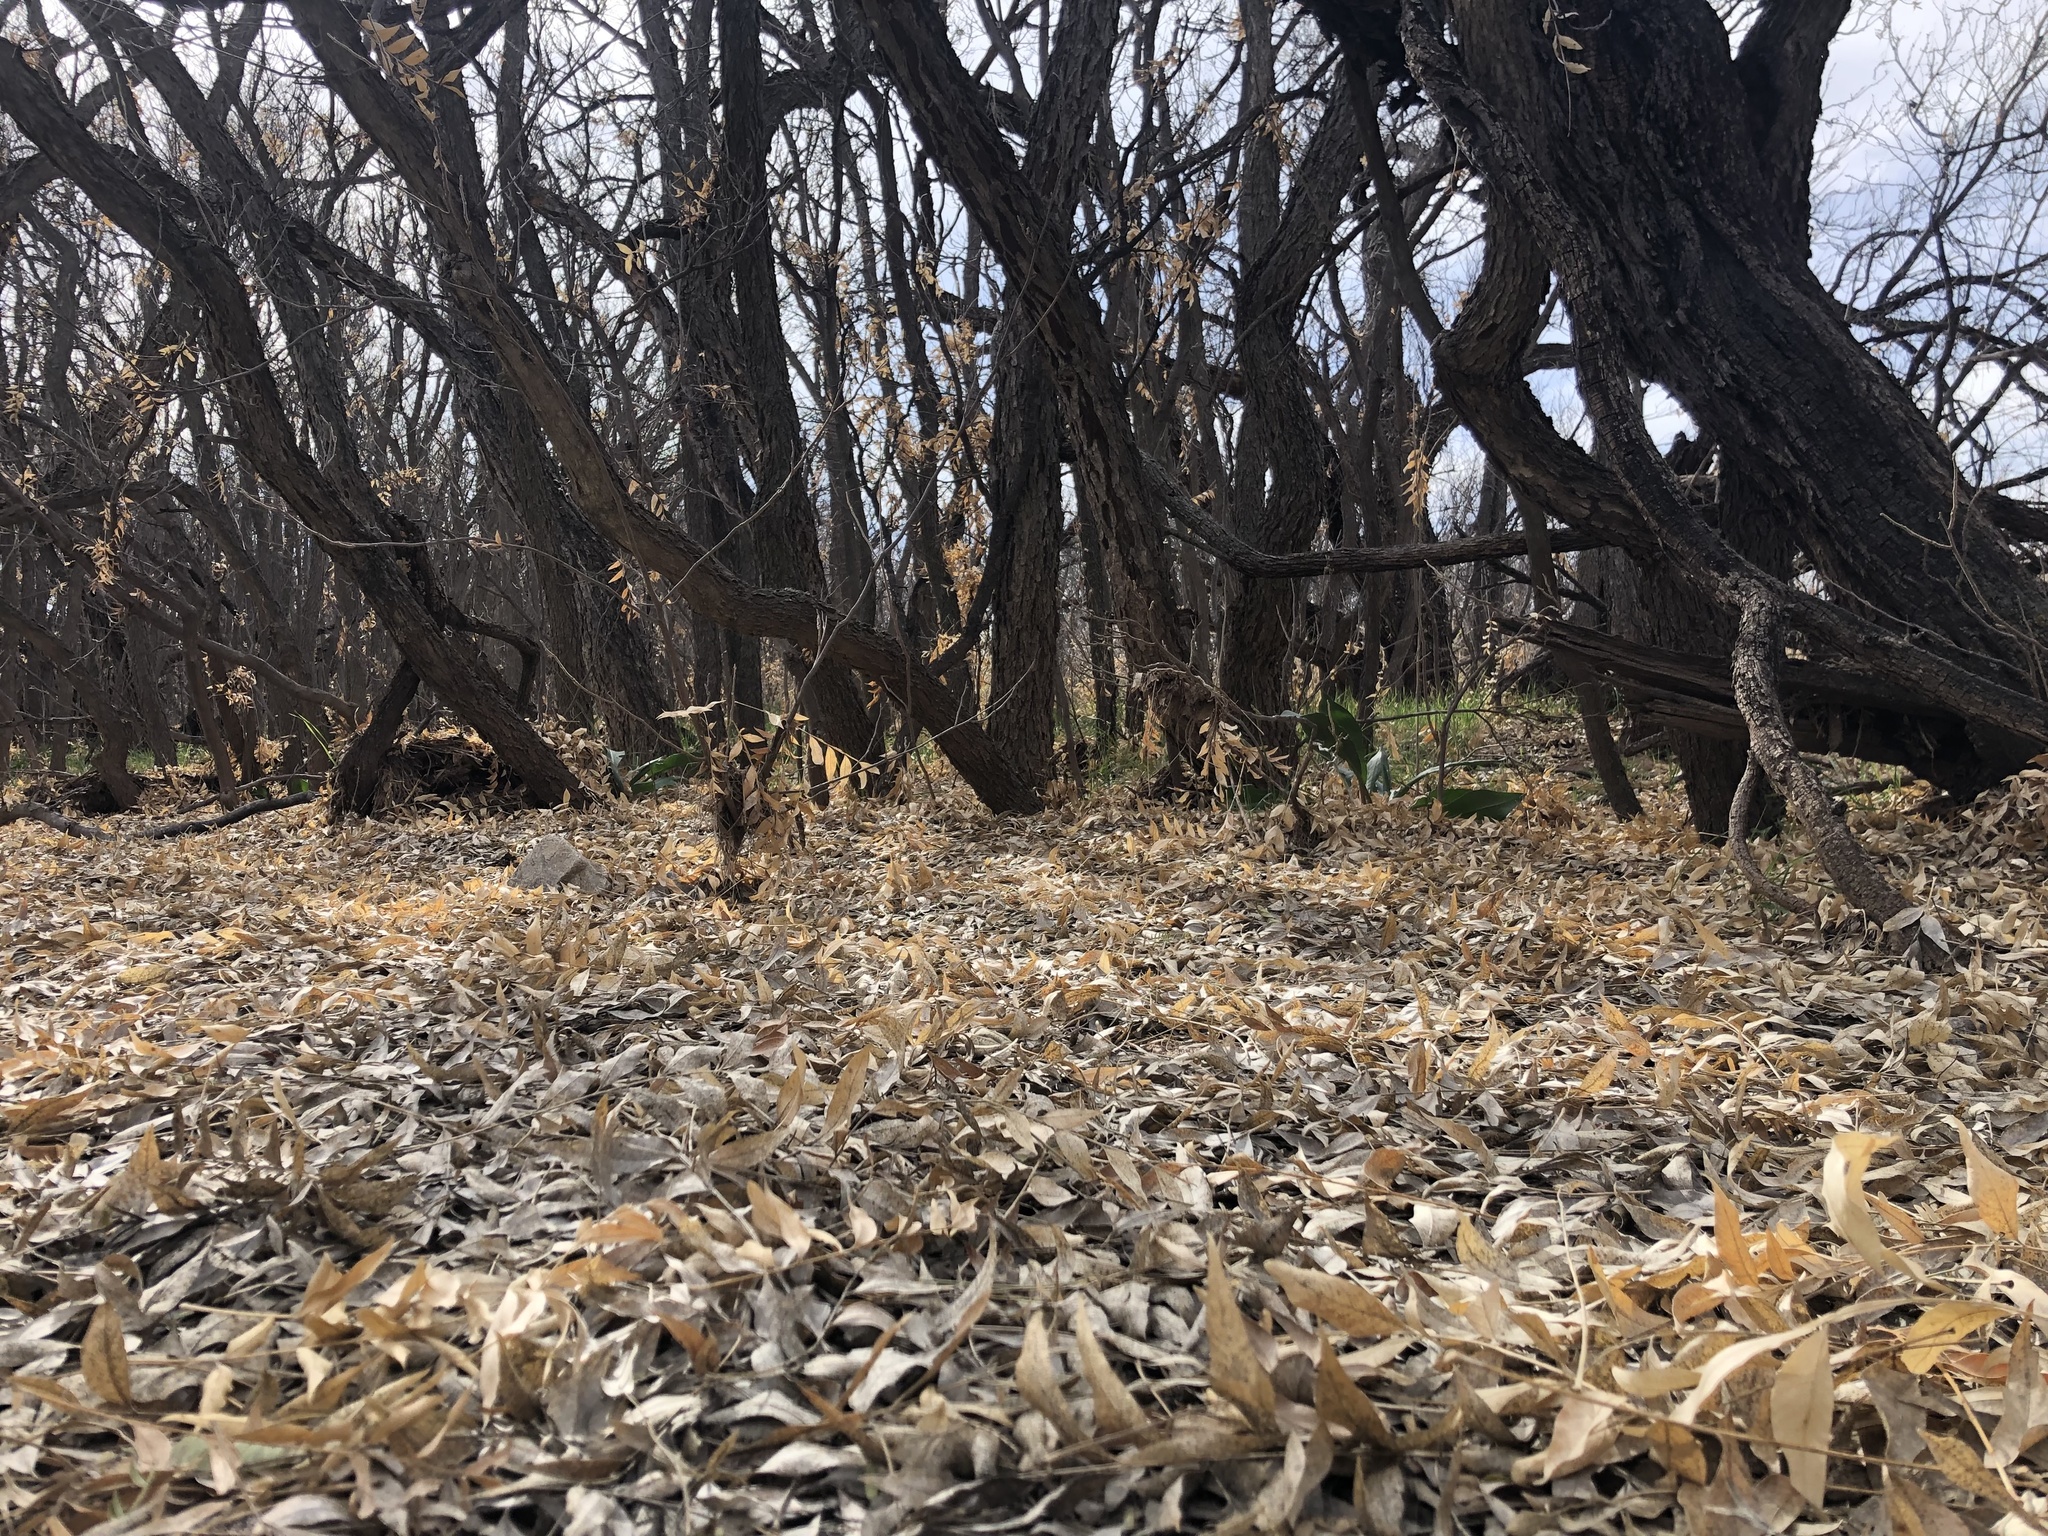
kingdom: Plantae
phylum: Tracheophyta
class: Magnoliopsida
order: Sapindales
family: Sapindaceae
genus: Sapindus
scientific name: Sapindus drummondii
